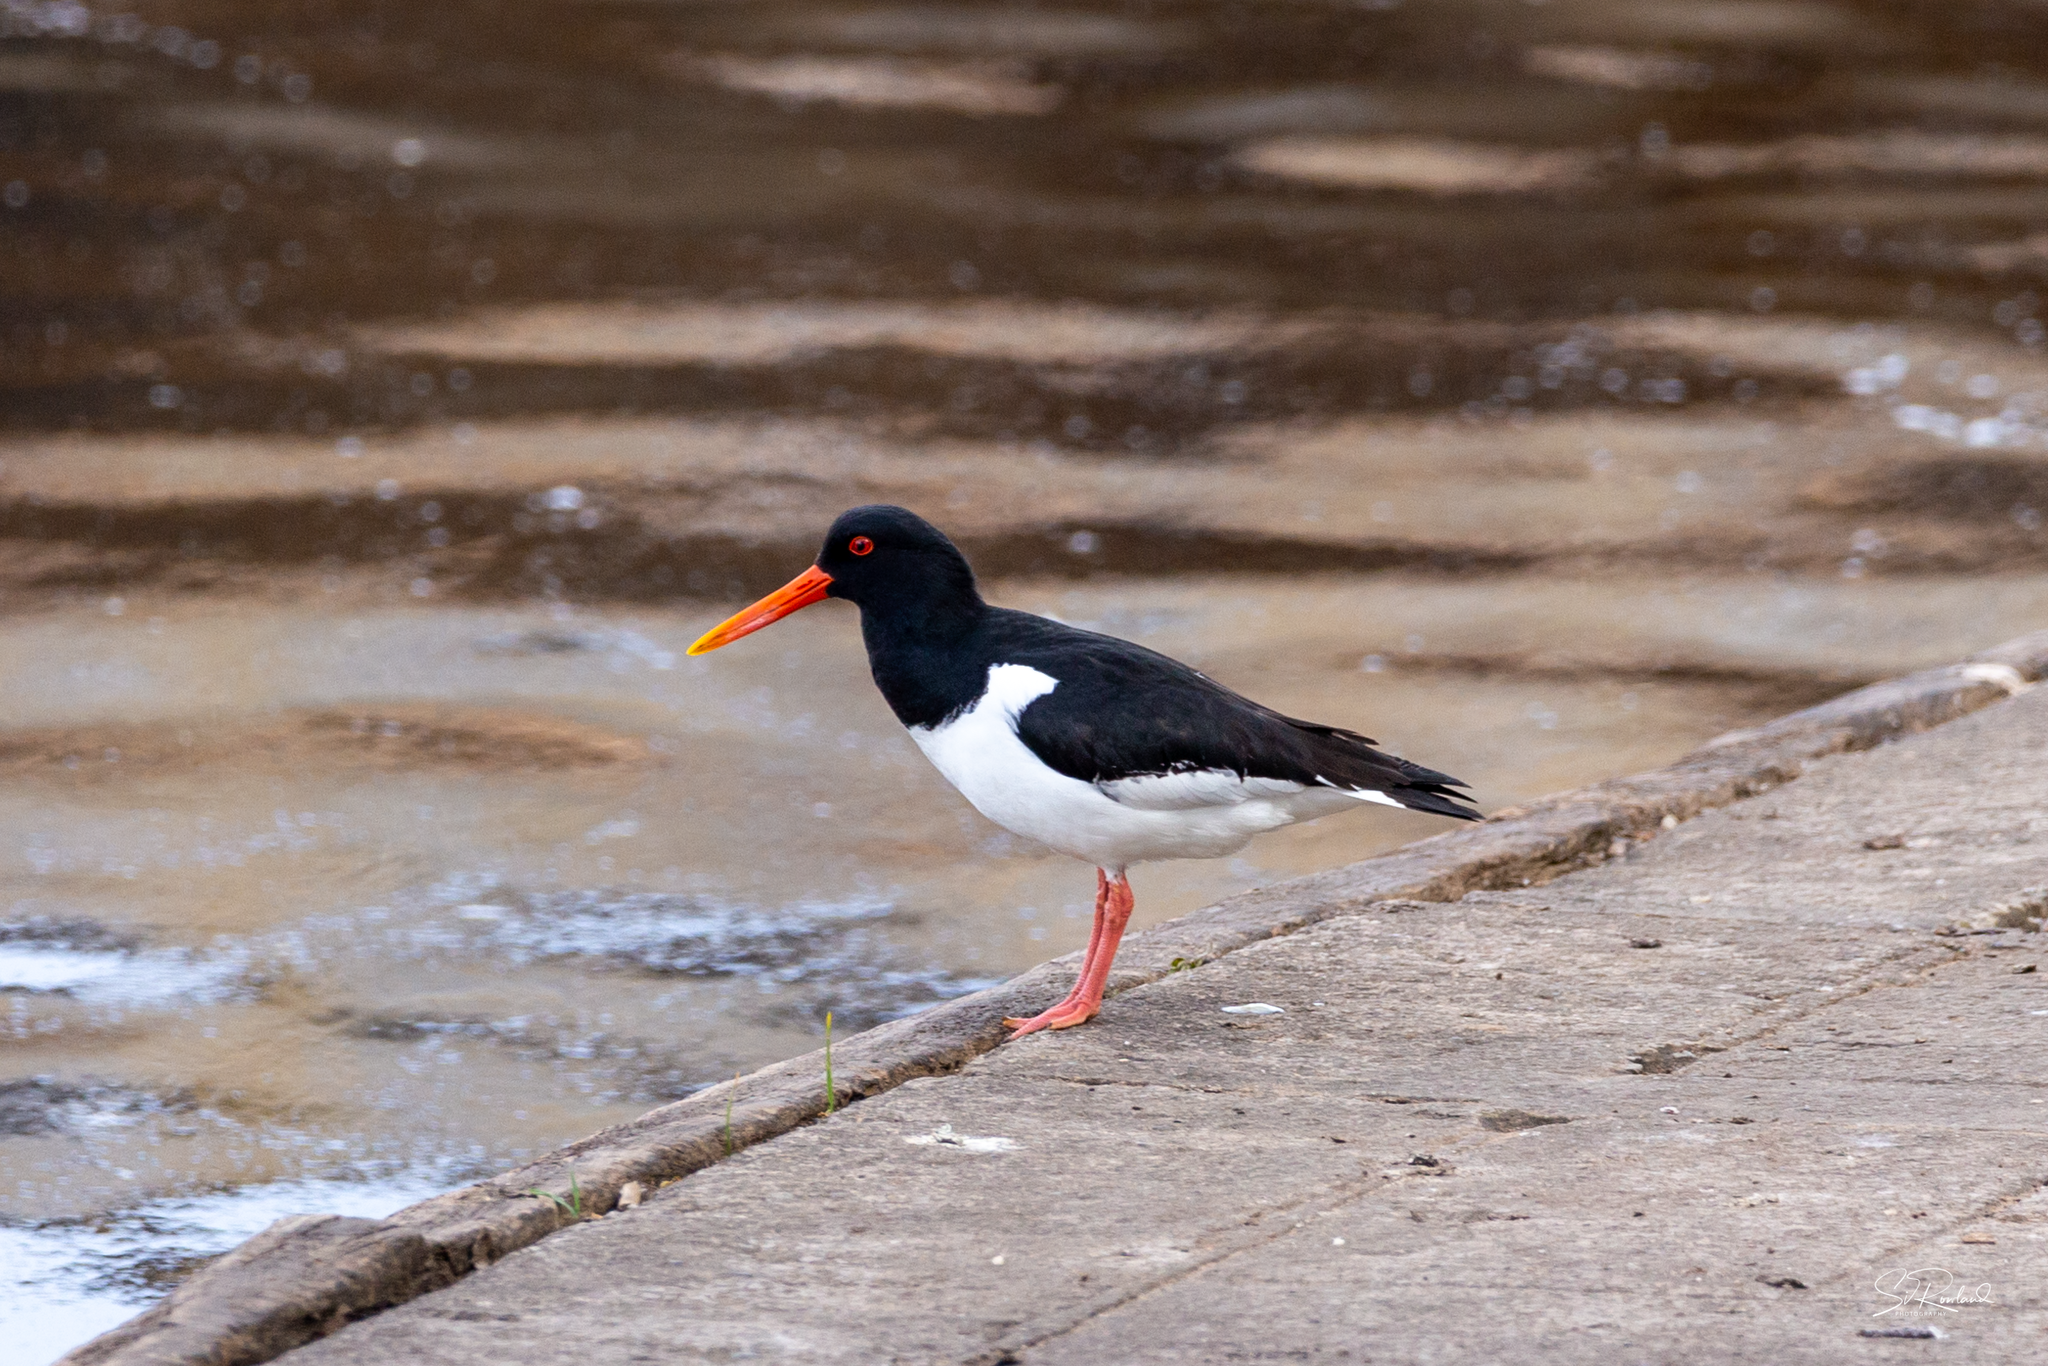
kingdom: Animalia
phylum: Chordata
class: Aves
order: Charadriiformes
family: Haematopodidae
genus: Haematopus
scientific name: Haematopus ostralegus
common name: Eurasian oystercatcher
